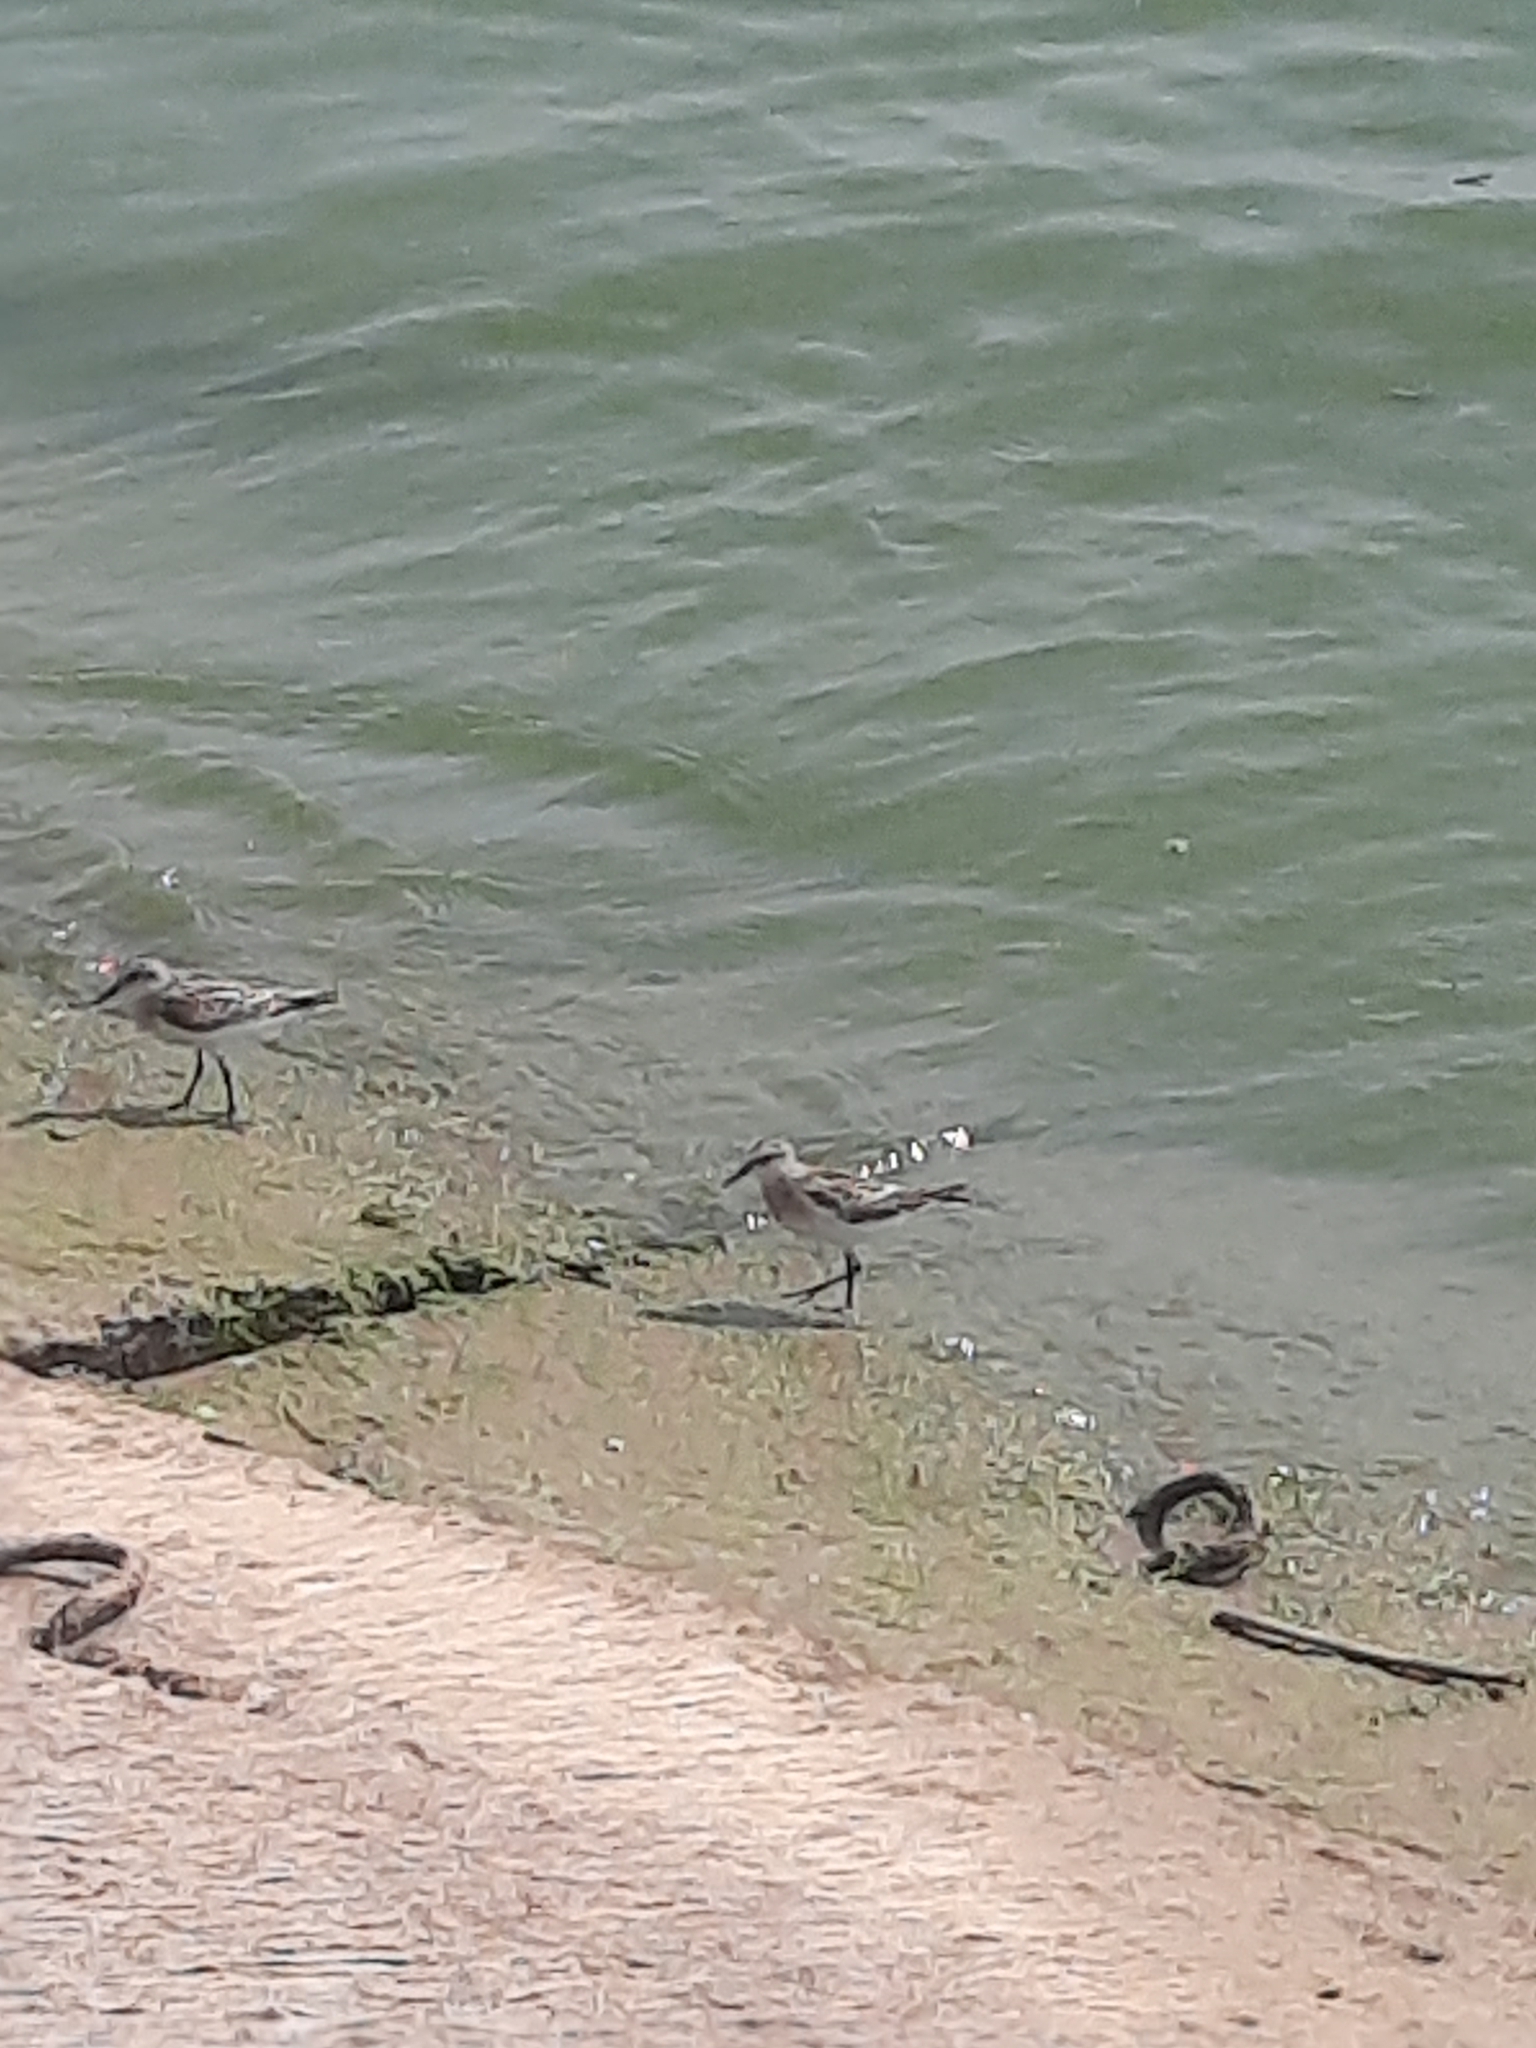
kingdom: Animalia
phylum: Chordata
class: Aves
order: Charadriiformes
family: Scolopacidae
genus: Calidris
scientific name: Calidris minuta
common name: Little stint
